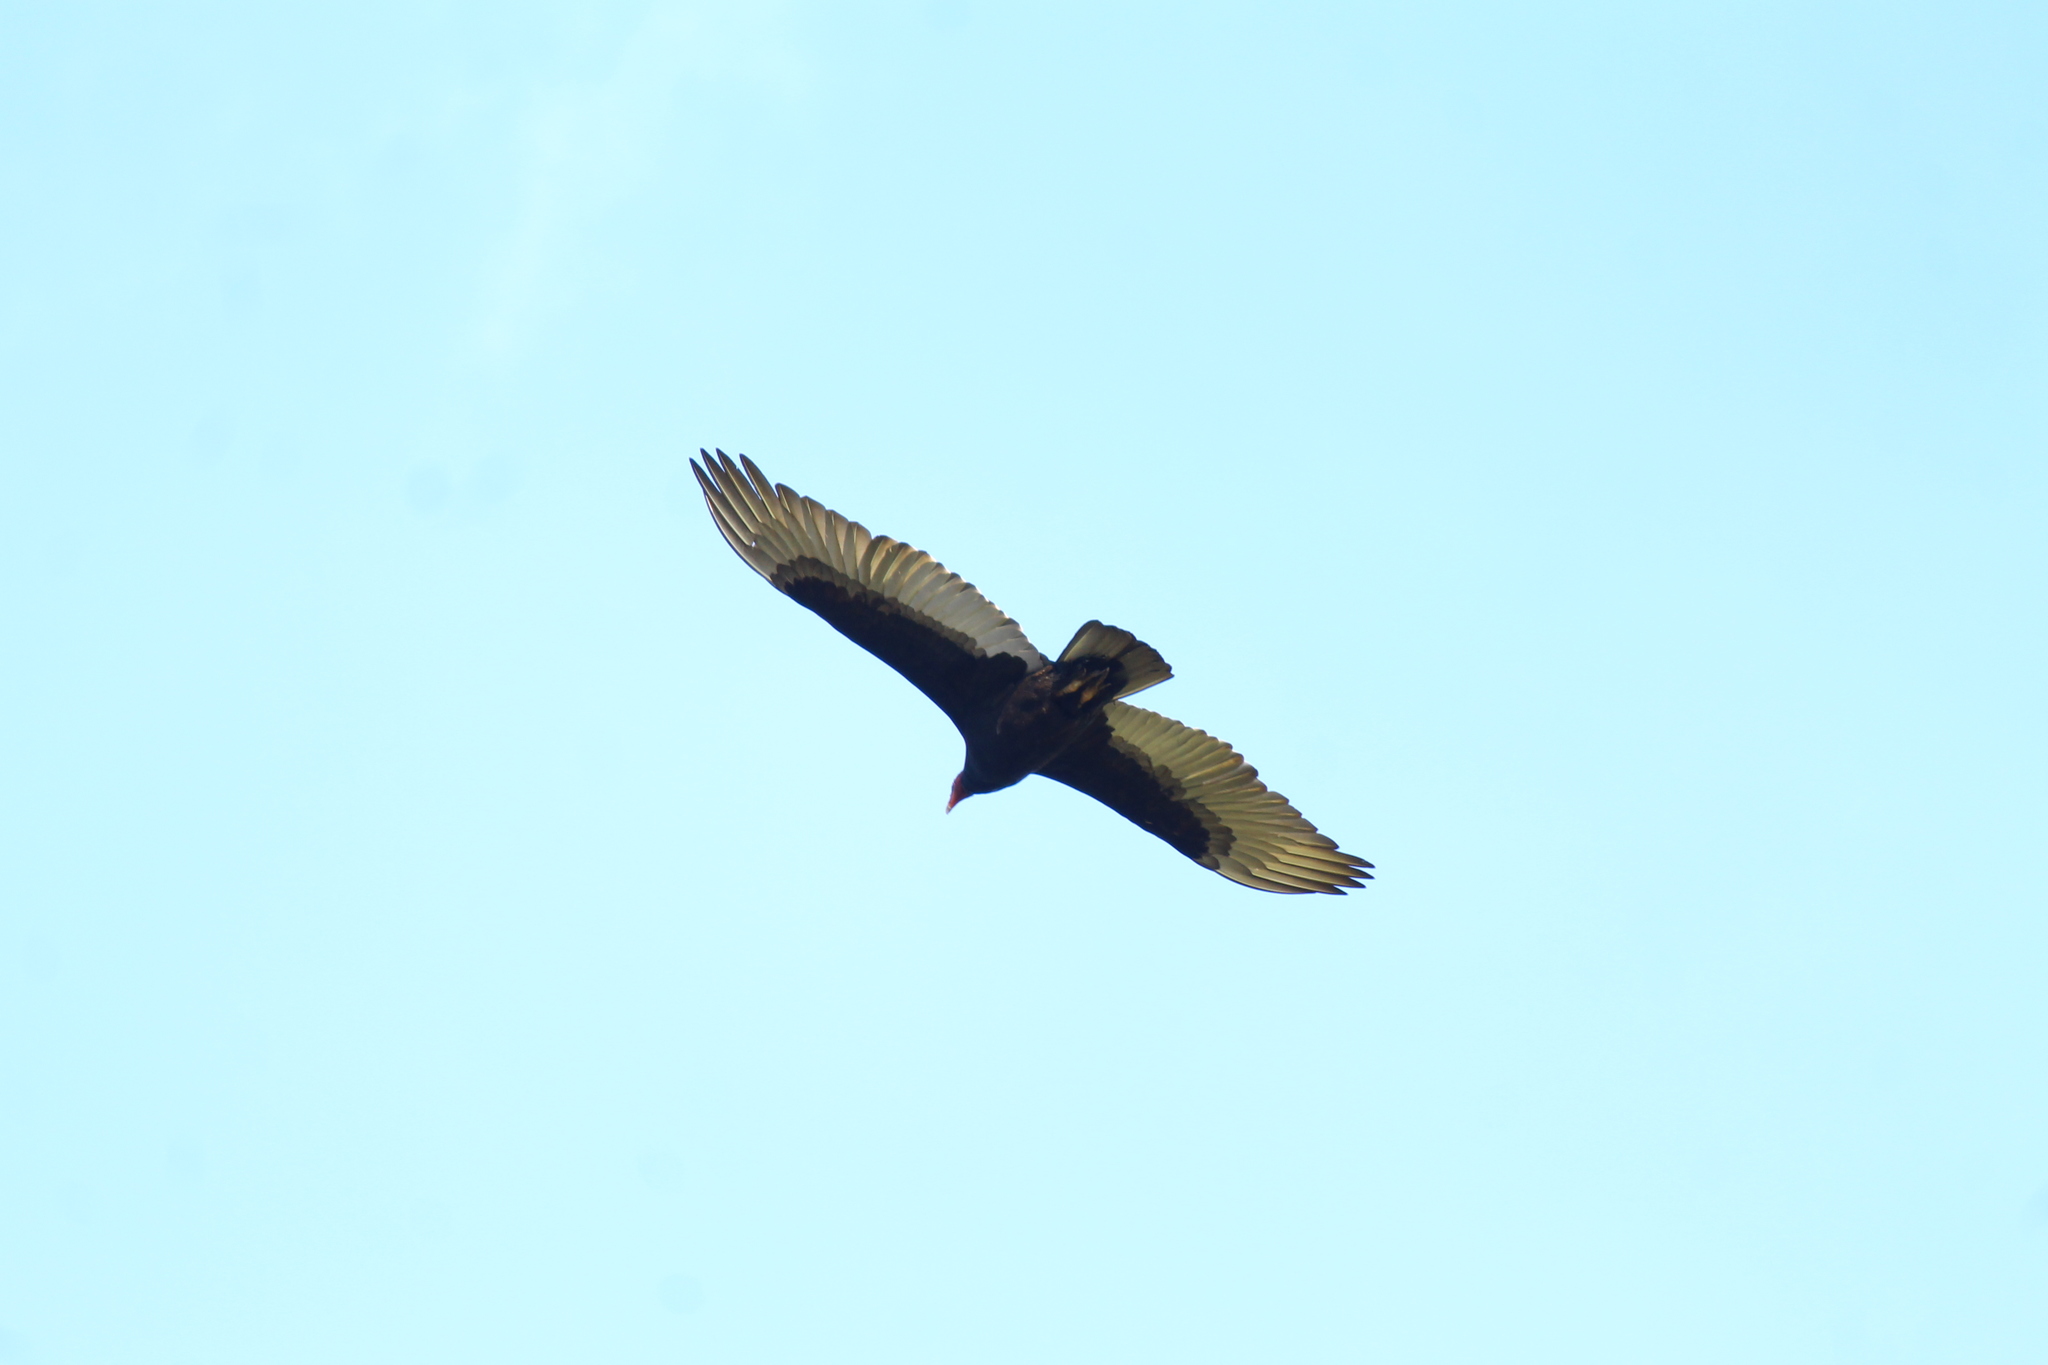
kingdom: Animalia
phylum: Chordata
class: Aves
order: Accipitriformes
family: Cathartidae
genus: Cathartes
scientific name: Cathartes aura
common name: Turkey vulture
